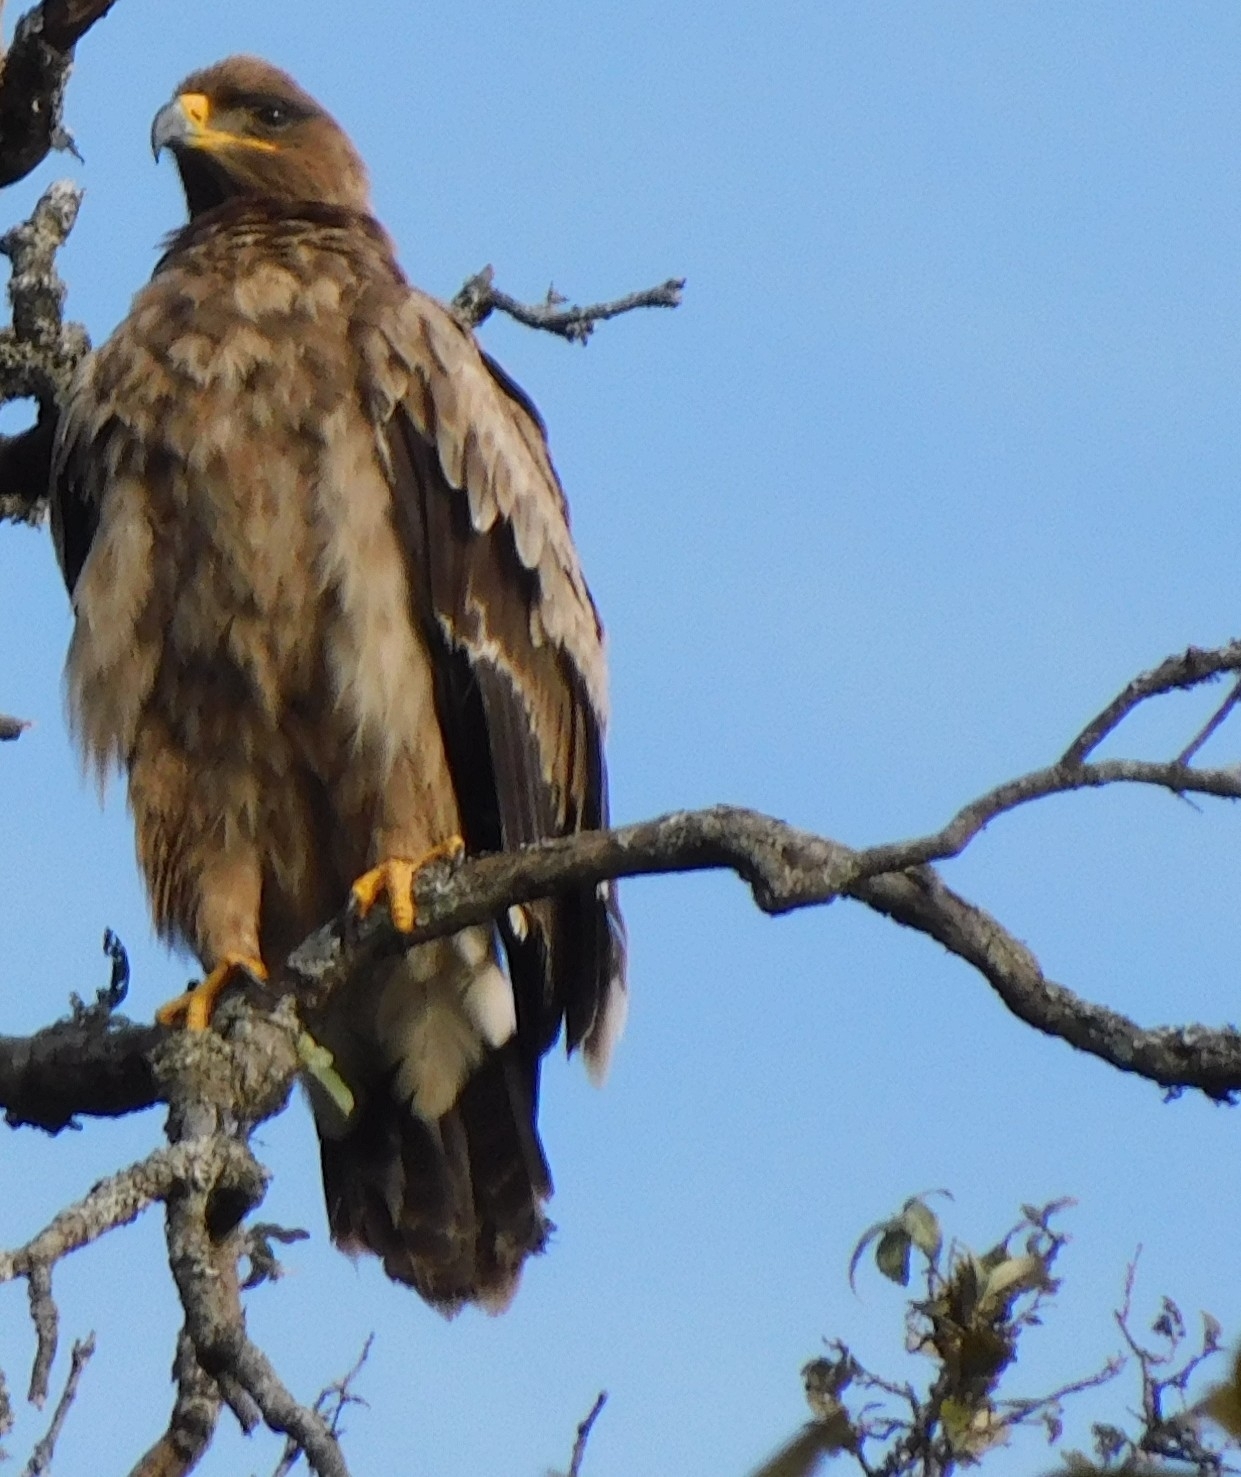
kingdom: Animalia
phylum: Chordata
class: Aves
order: Accipitriformes
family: Accipitridae
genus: Aquila
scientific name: Aquila nipalensis
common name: Steppe eagle
